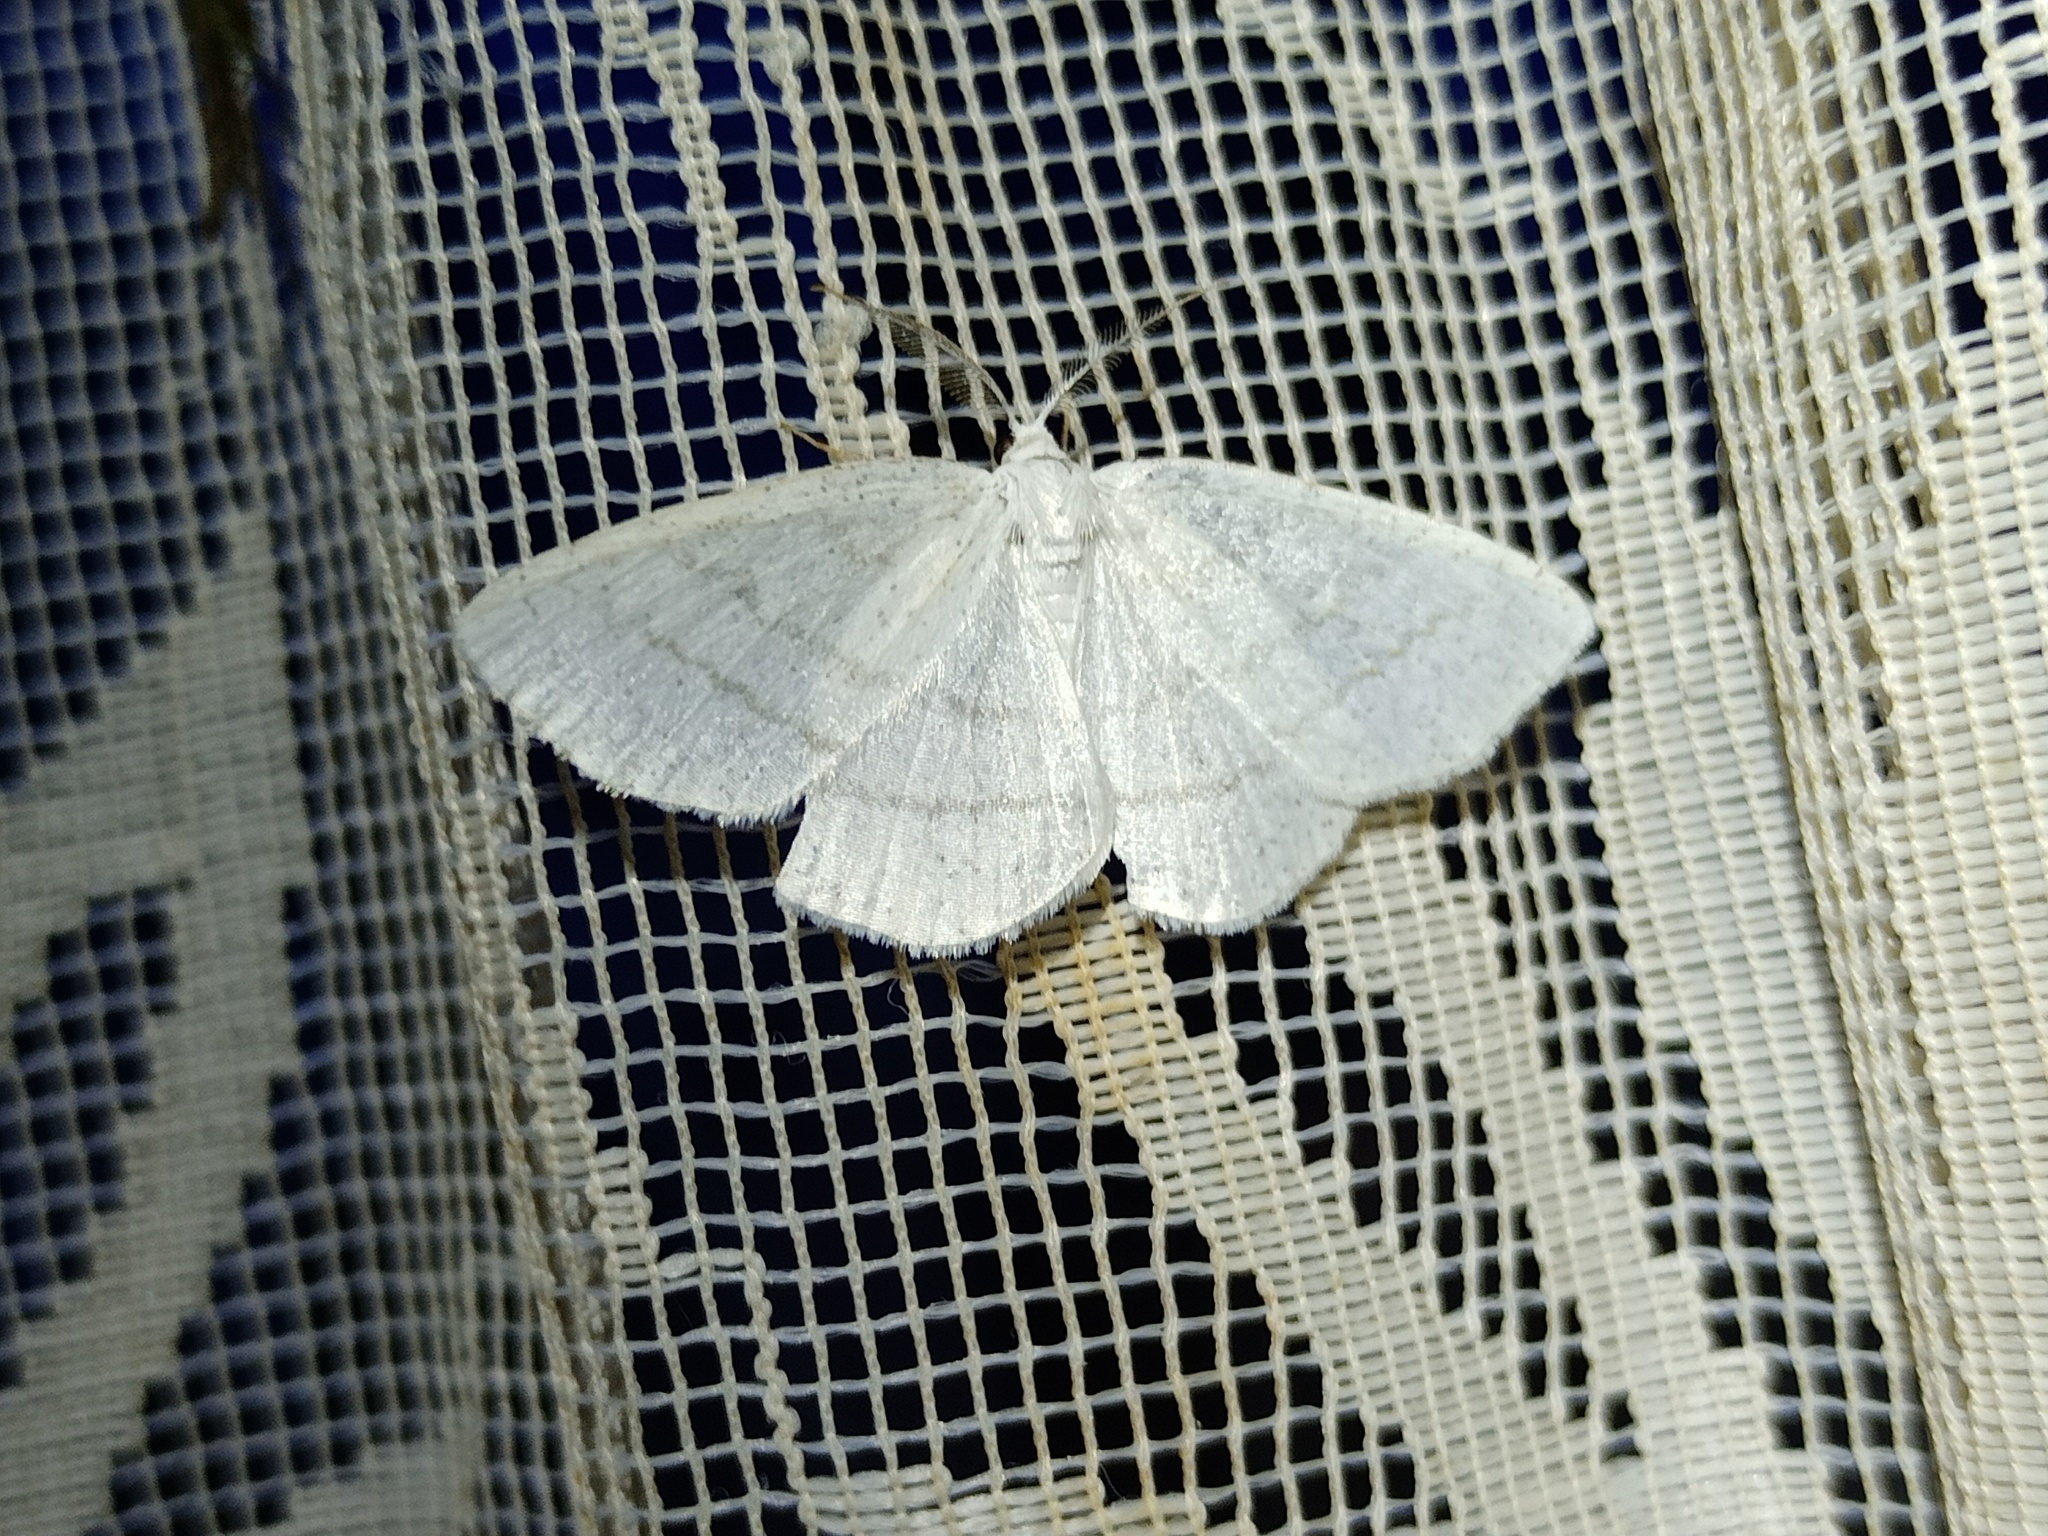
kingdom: Animalia
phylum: Arthropoda
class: Insecta
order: Lepidoptera
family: Geometridae
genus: Cabera
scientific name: Cabera pusaria
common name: Common white wave
